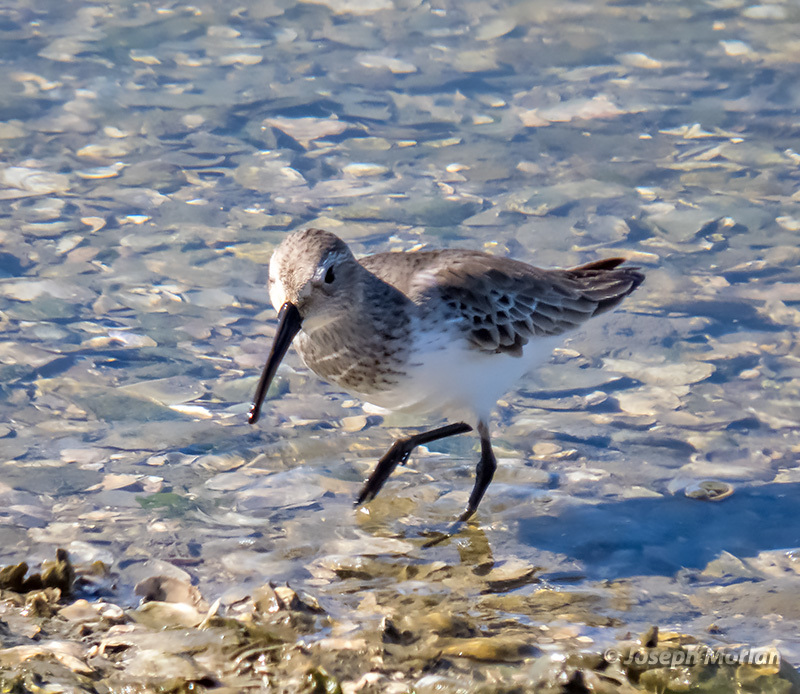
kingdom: Animalia
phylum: Chordata
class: Aves
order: Charadriiformes
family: Scolopacidae
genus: Calidris
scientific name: Calidris alpina
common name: Dunlin
